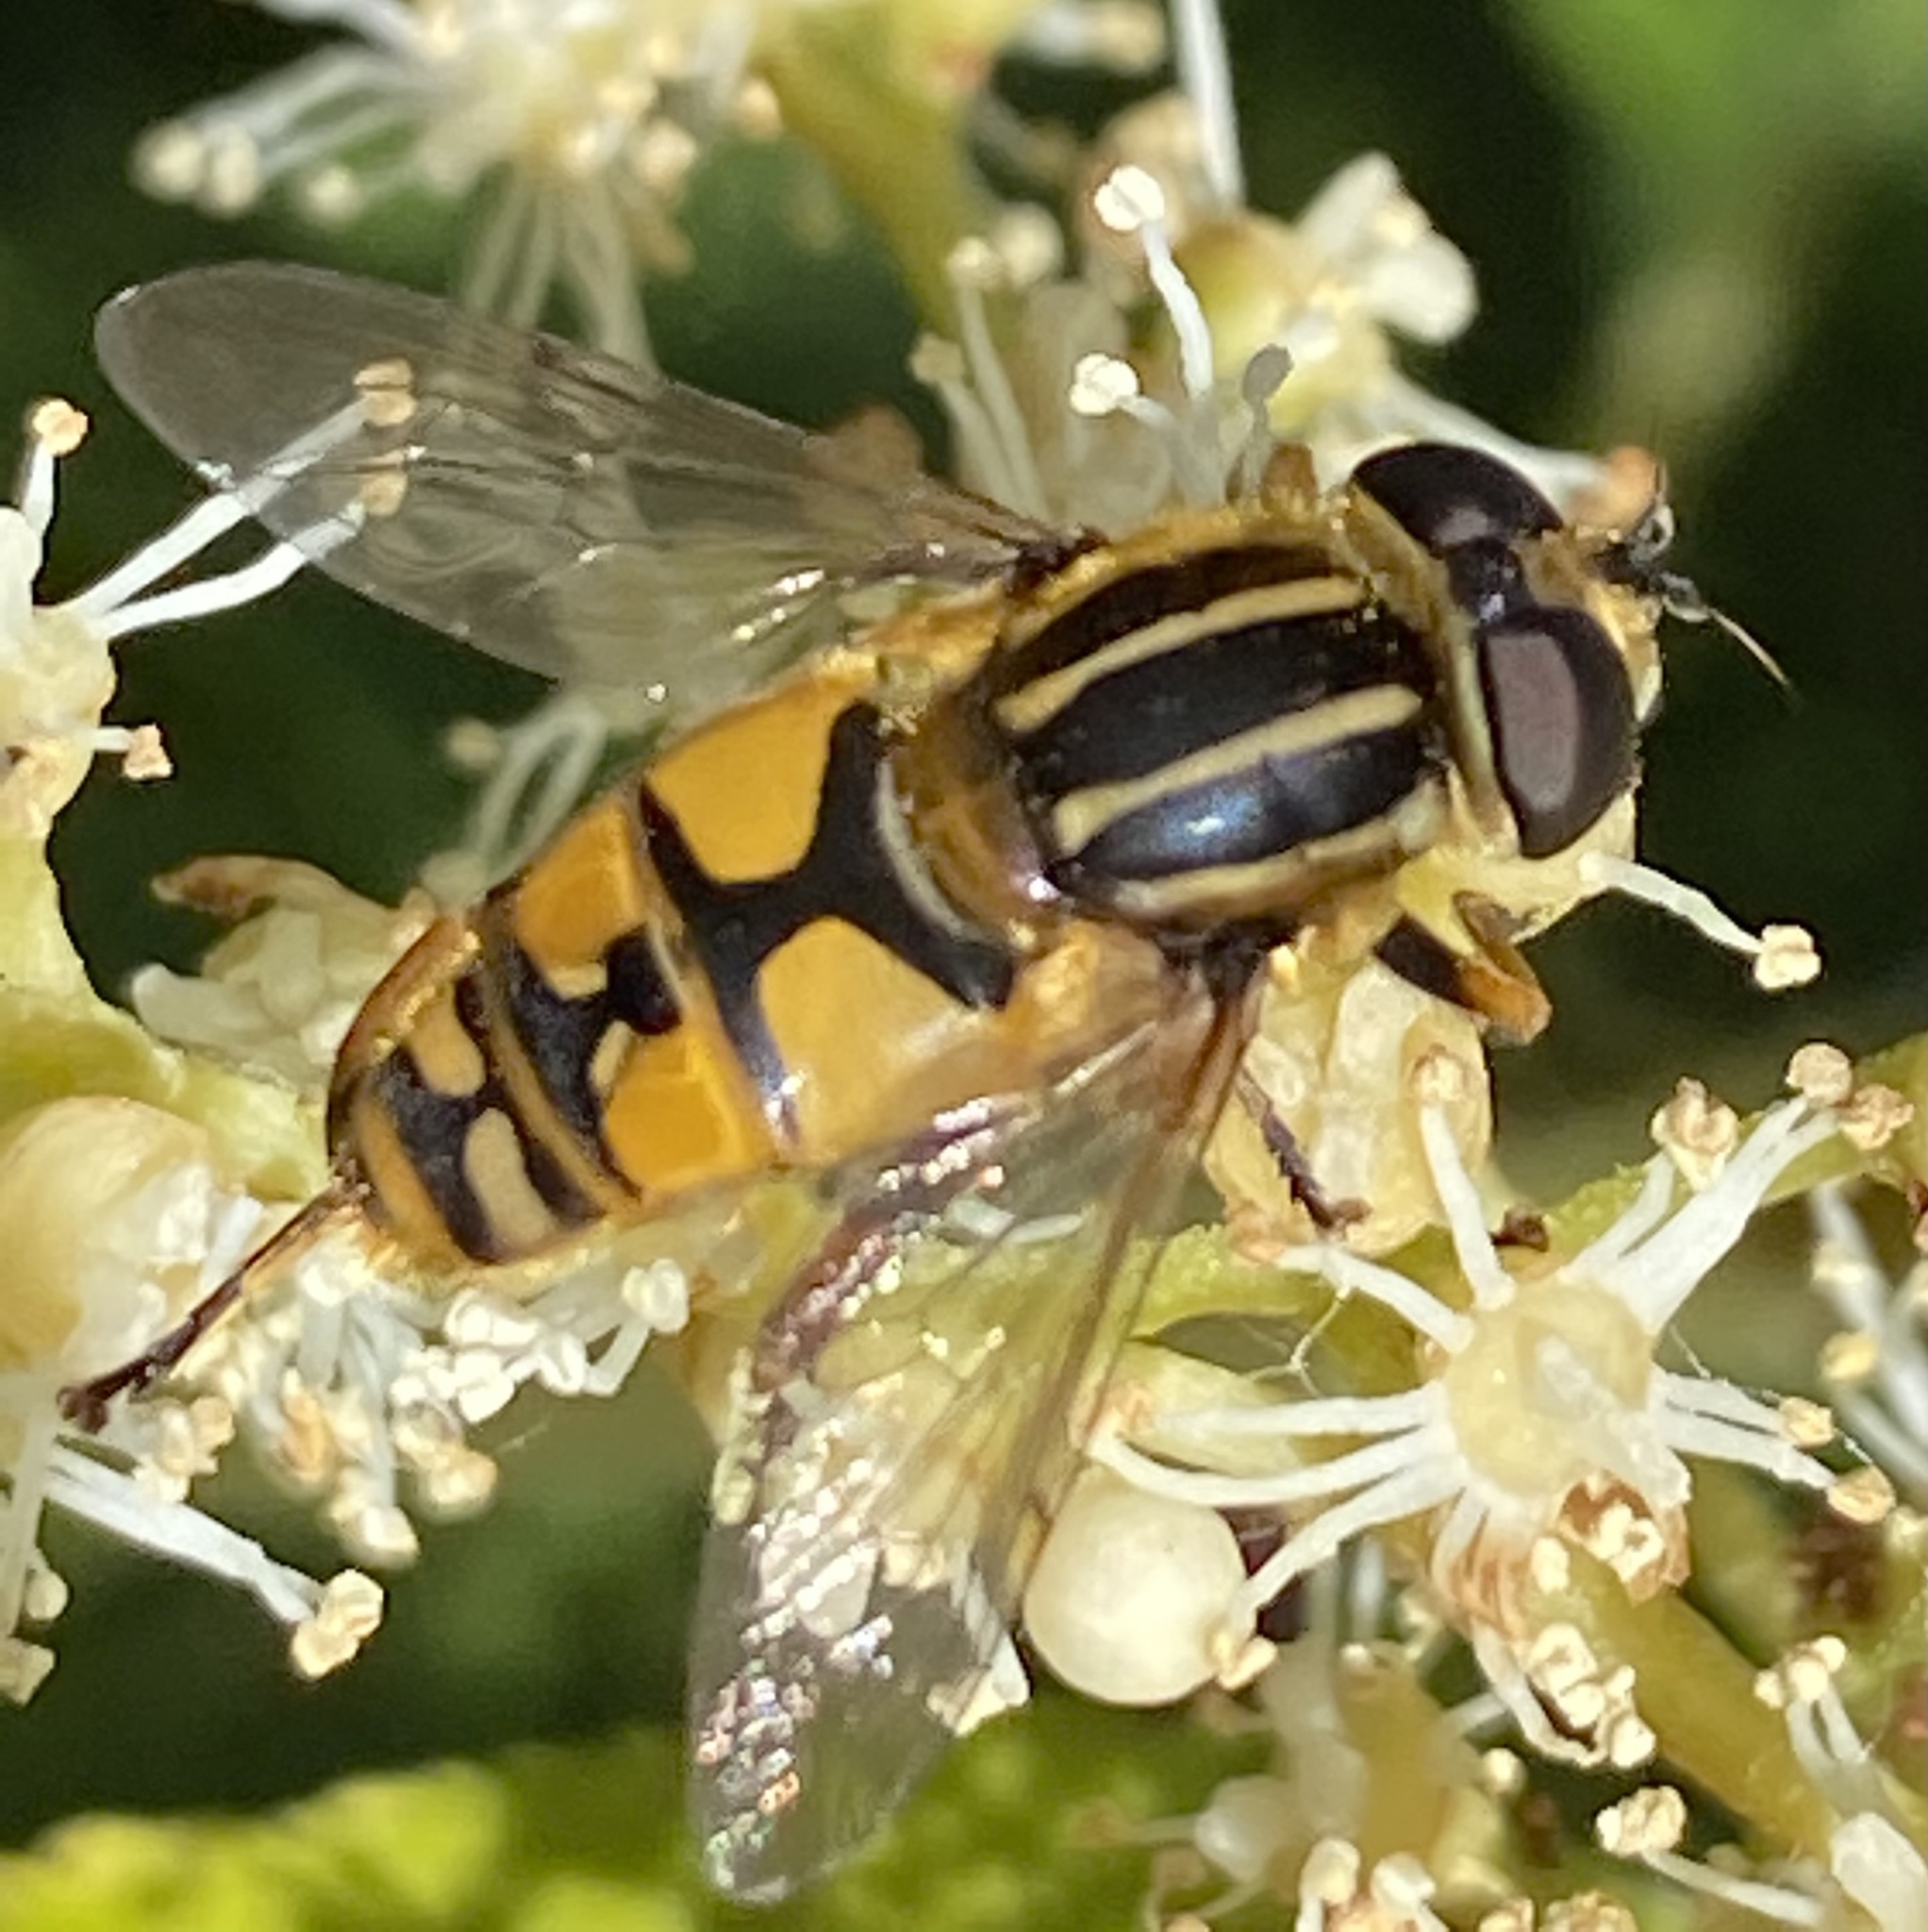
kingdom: Animalia
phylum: Arthropoda
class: Insecta
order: Diptera
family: Syrphidae
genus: Helophilus
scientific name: Helophilus pendulus
